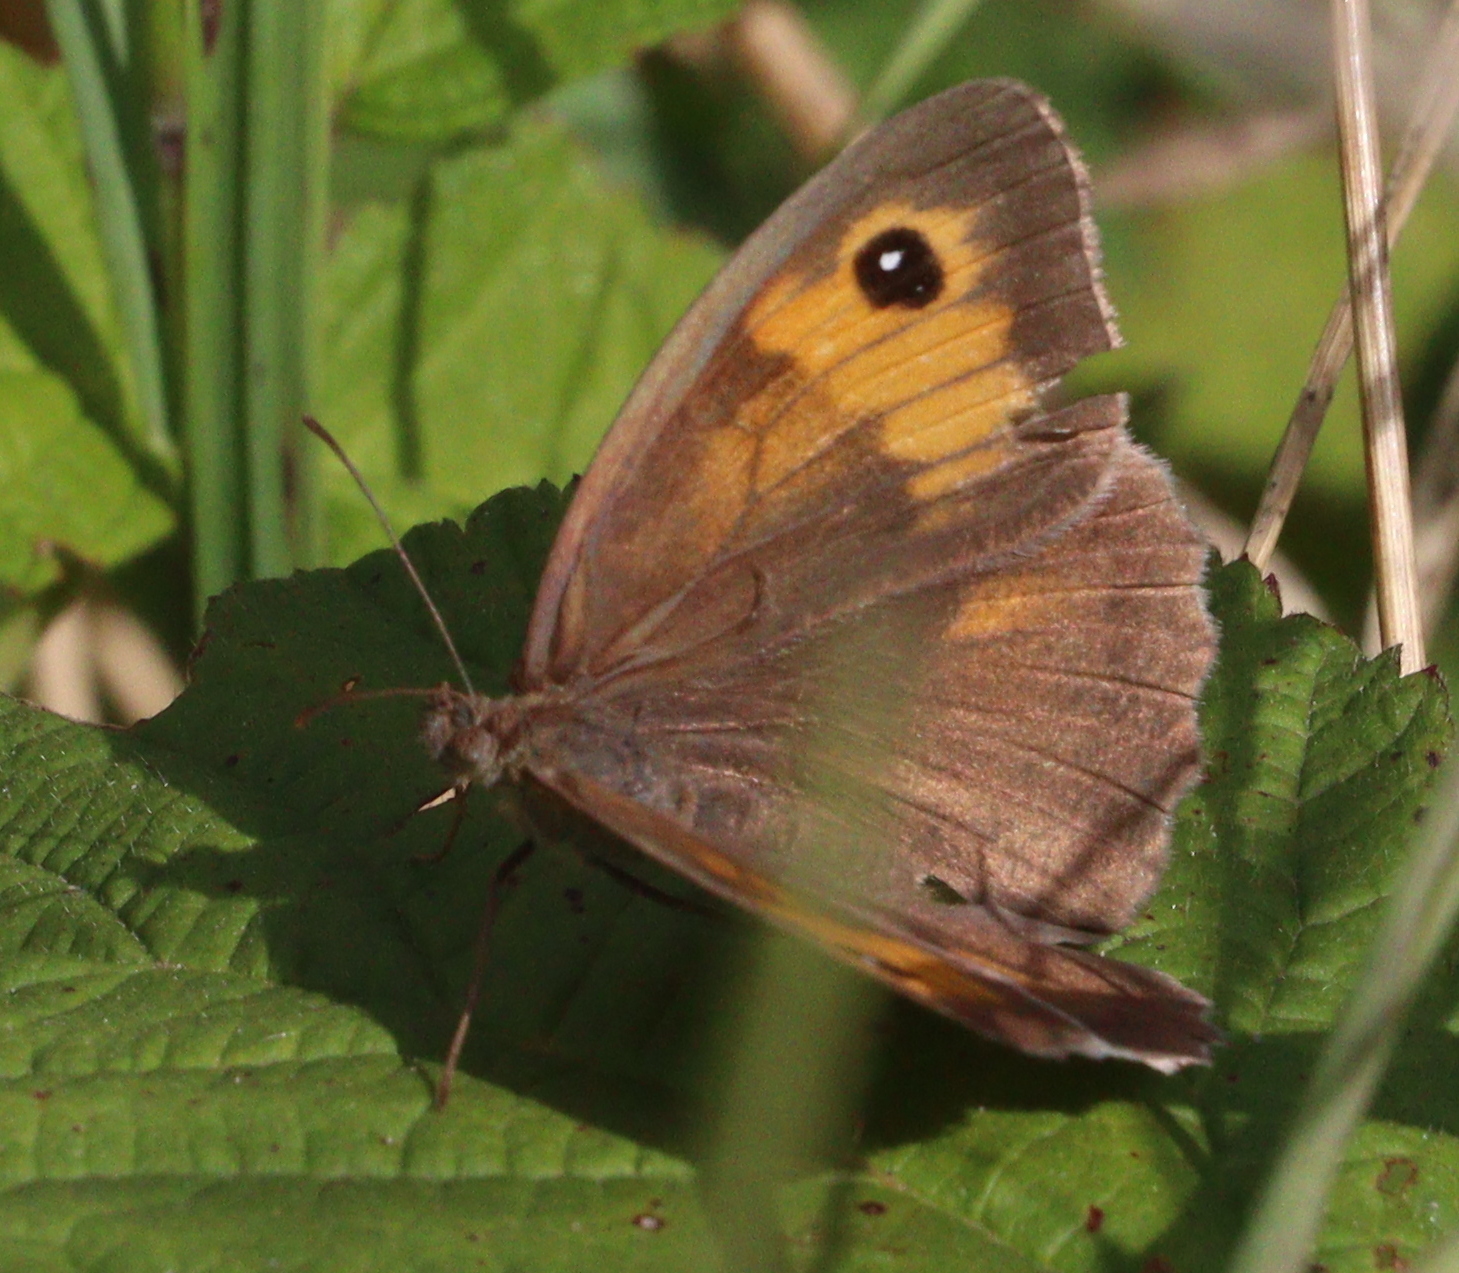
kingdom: Animalia
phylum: Arthropoda
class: Insecta
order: Lepidoptera
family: Nymphalidae
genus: Maniola
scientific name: Maniola jurtina
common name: Meadow brown
